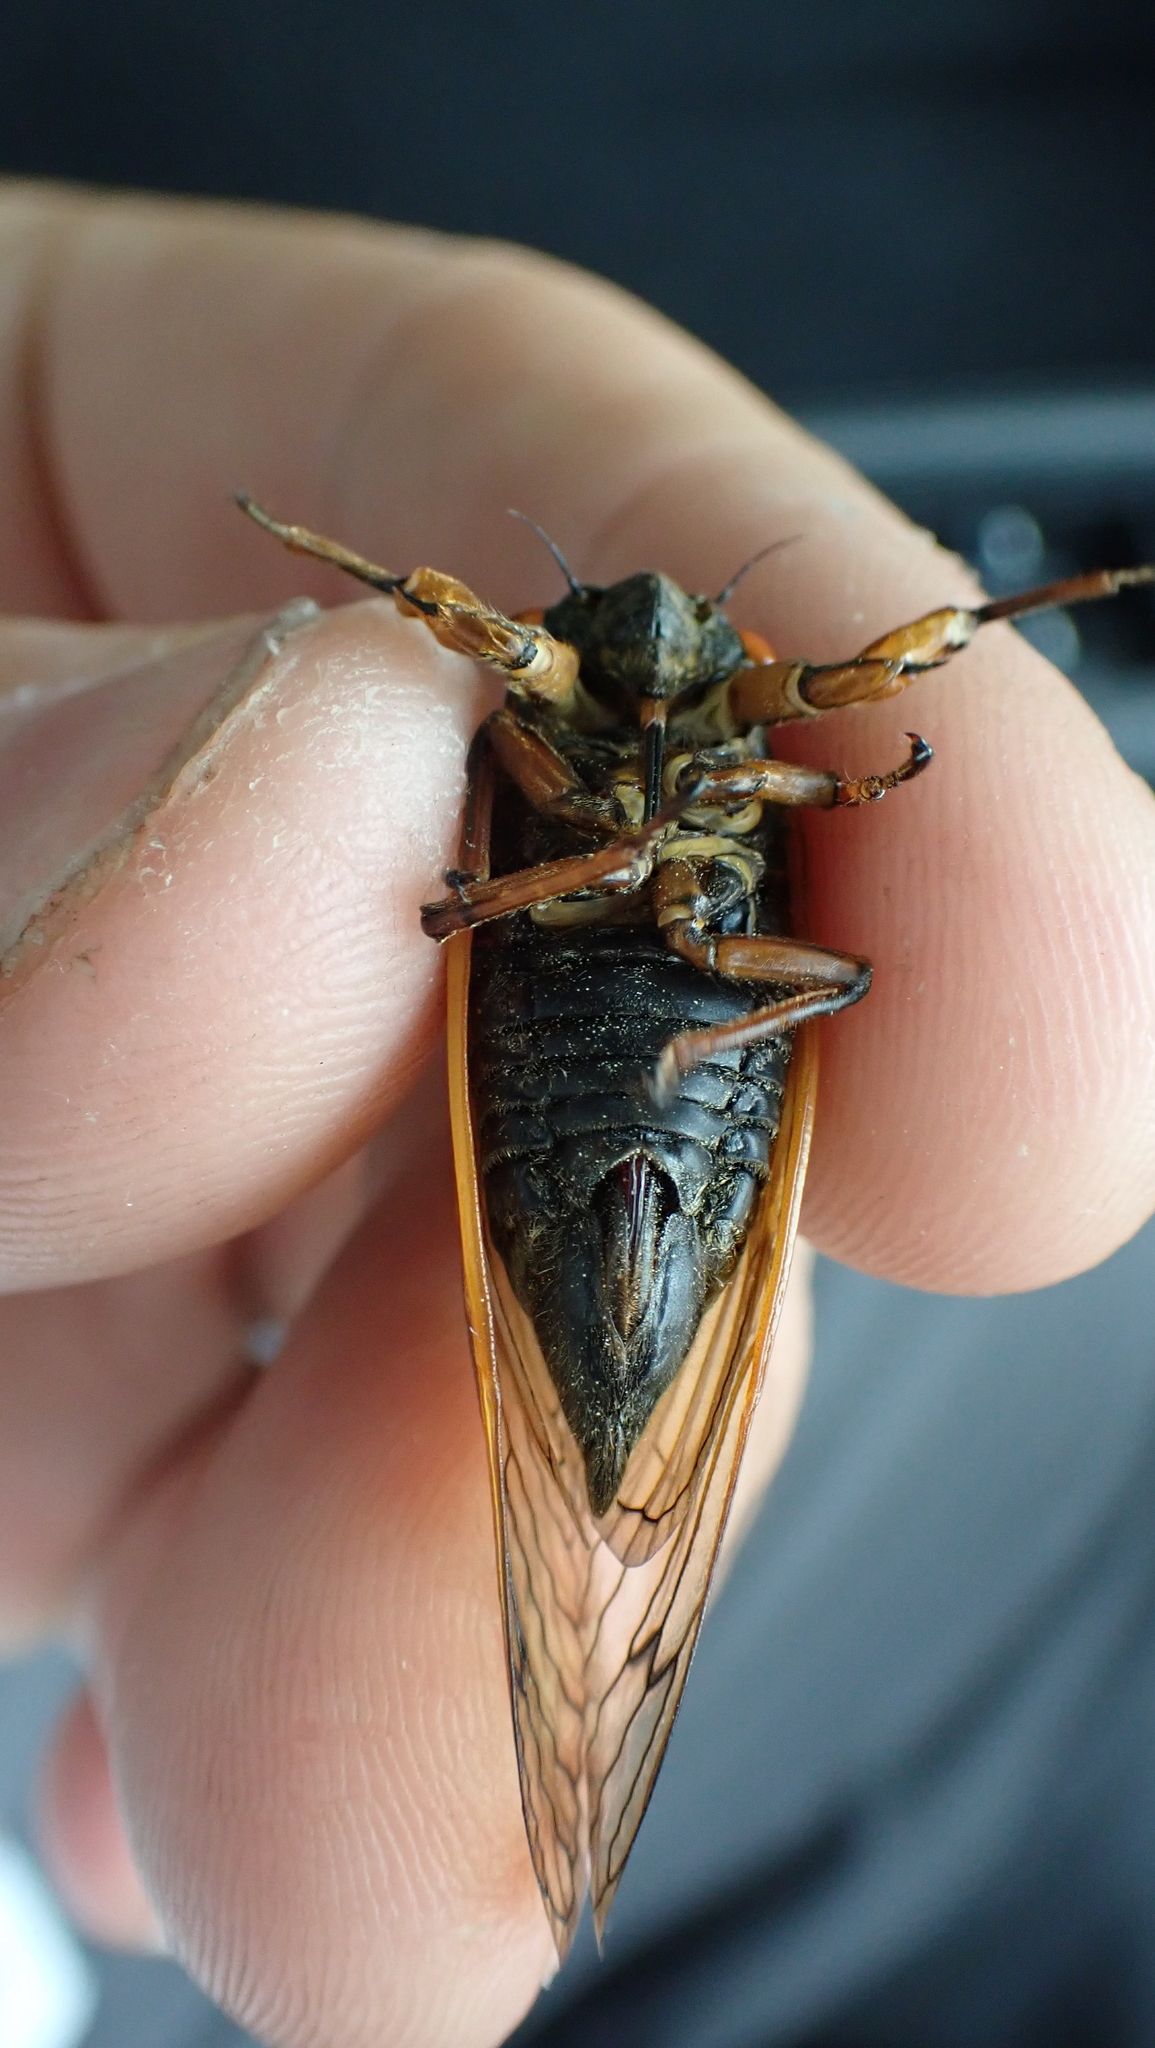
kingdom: Animalia
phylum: Arthropoda
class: Insecta
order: Hemiptera
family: Cicadidae
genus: Magicicada
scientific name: Magicicada cassini
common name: Cassin's 17-year cicada
